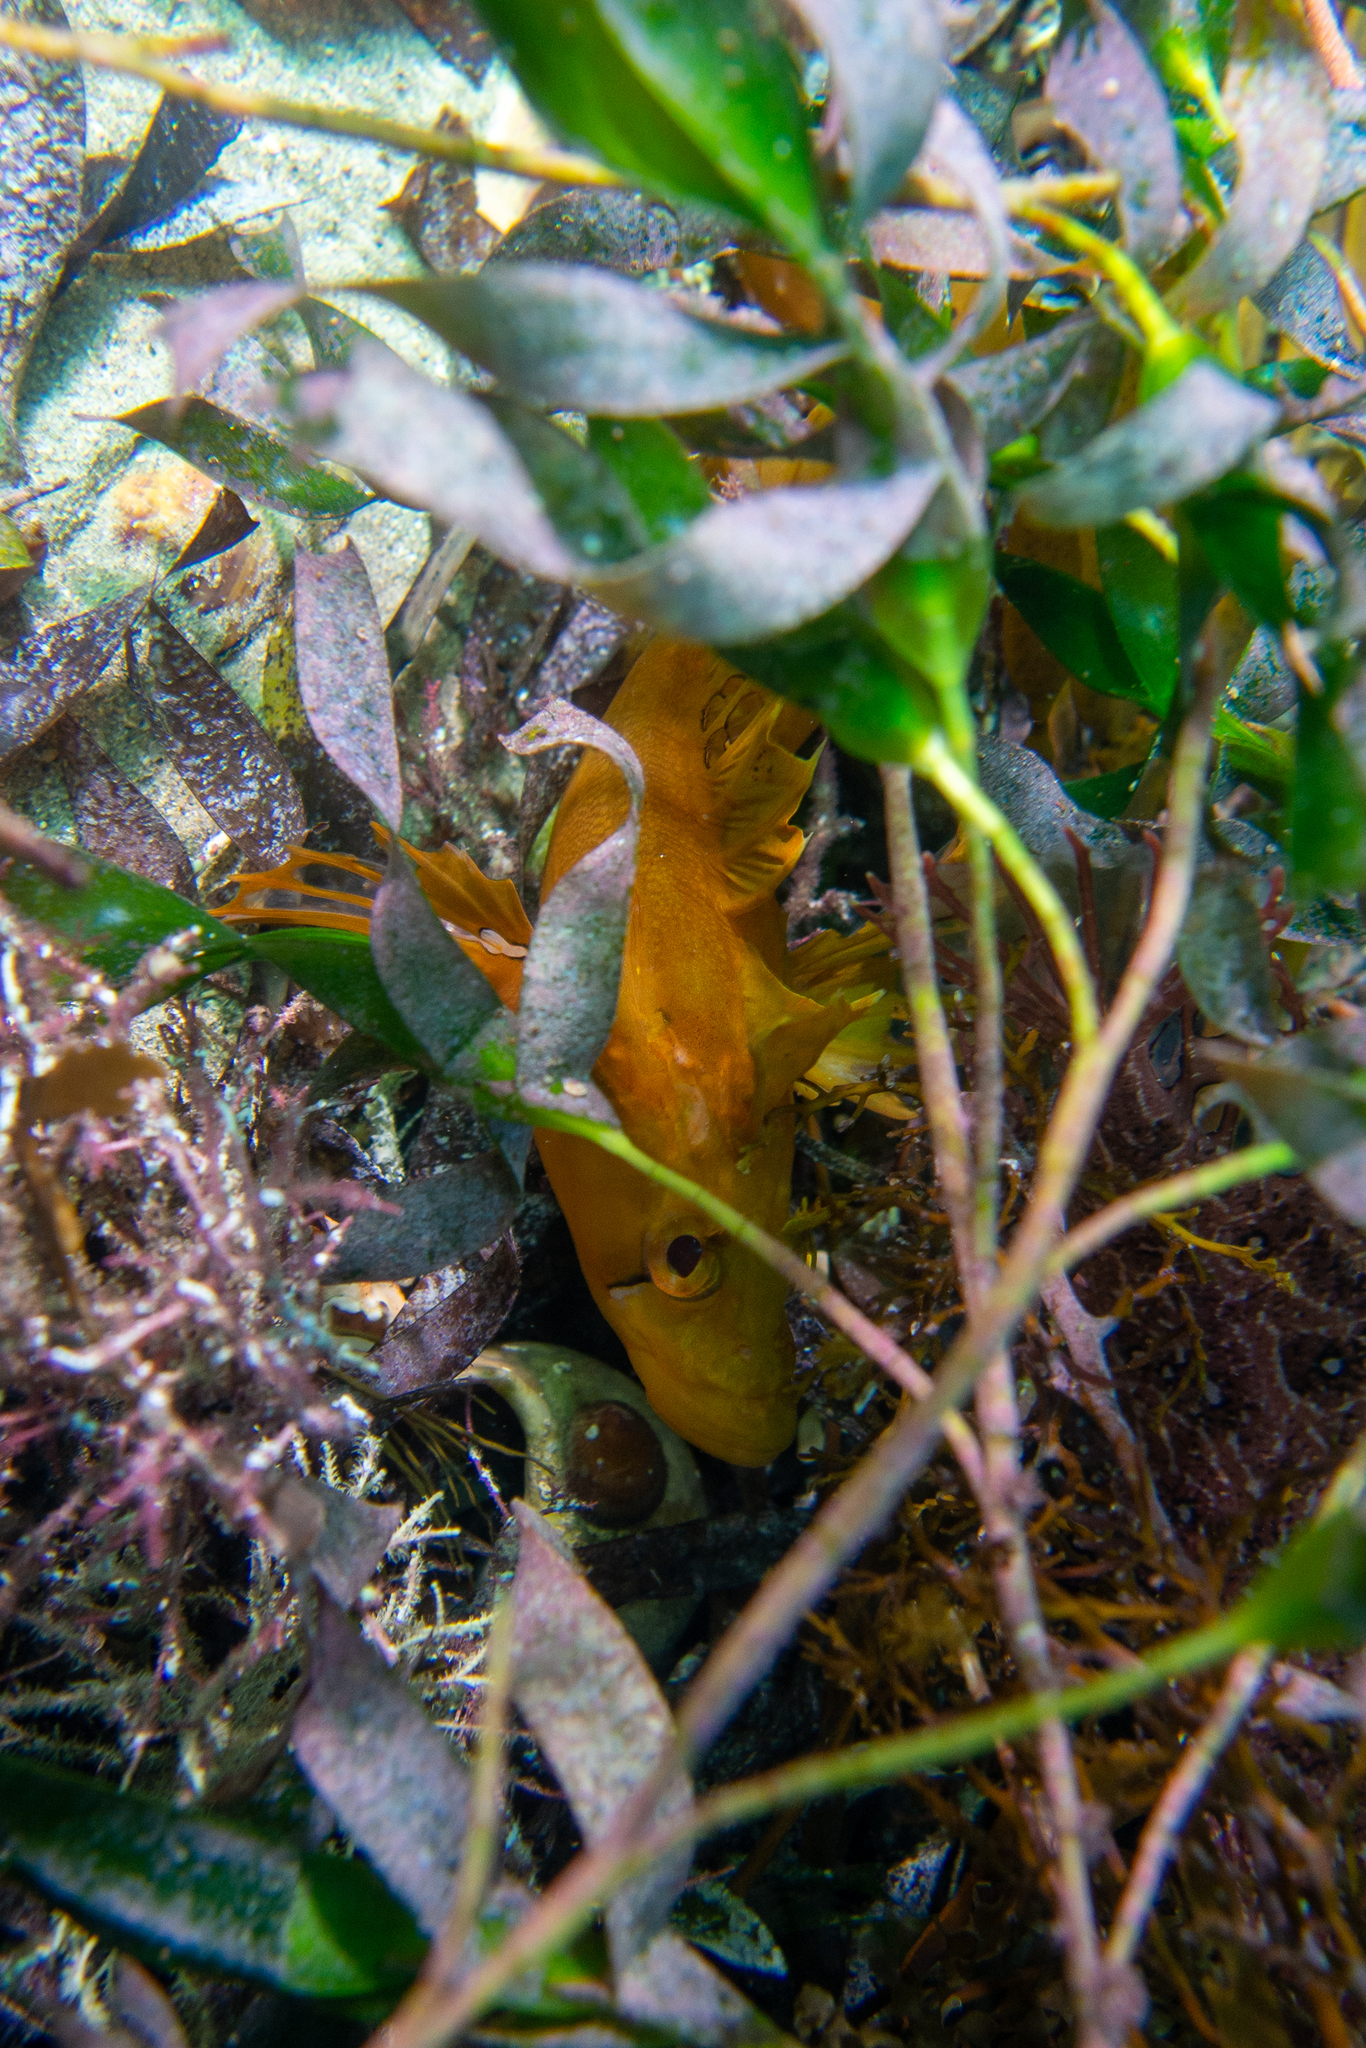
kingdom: Animalia
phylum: Chordata
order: Perciformes
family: Clinidae
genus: Heteroclinus
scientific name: Heteroclinus tristis
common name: Sharp-nose weedfish
